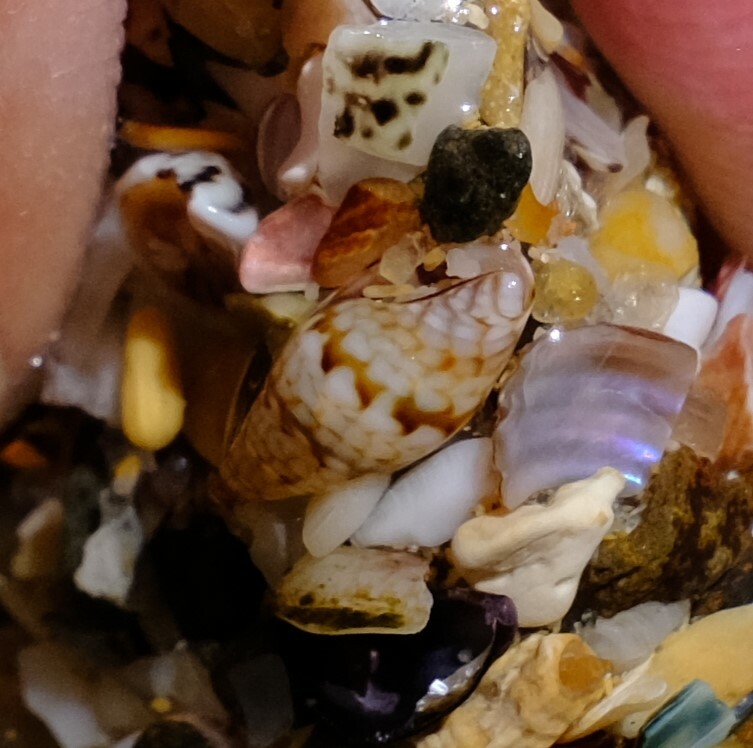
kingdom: Animalia
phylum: Mollusca
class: Gastropoda
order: Neogastropoda
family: Columbellidae
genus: Pseudamycla
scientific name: Pseudamycla dermestoidea
